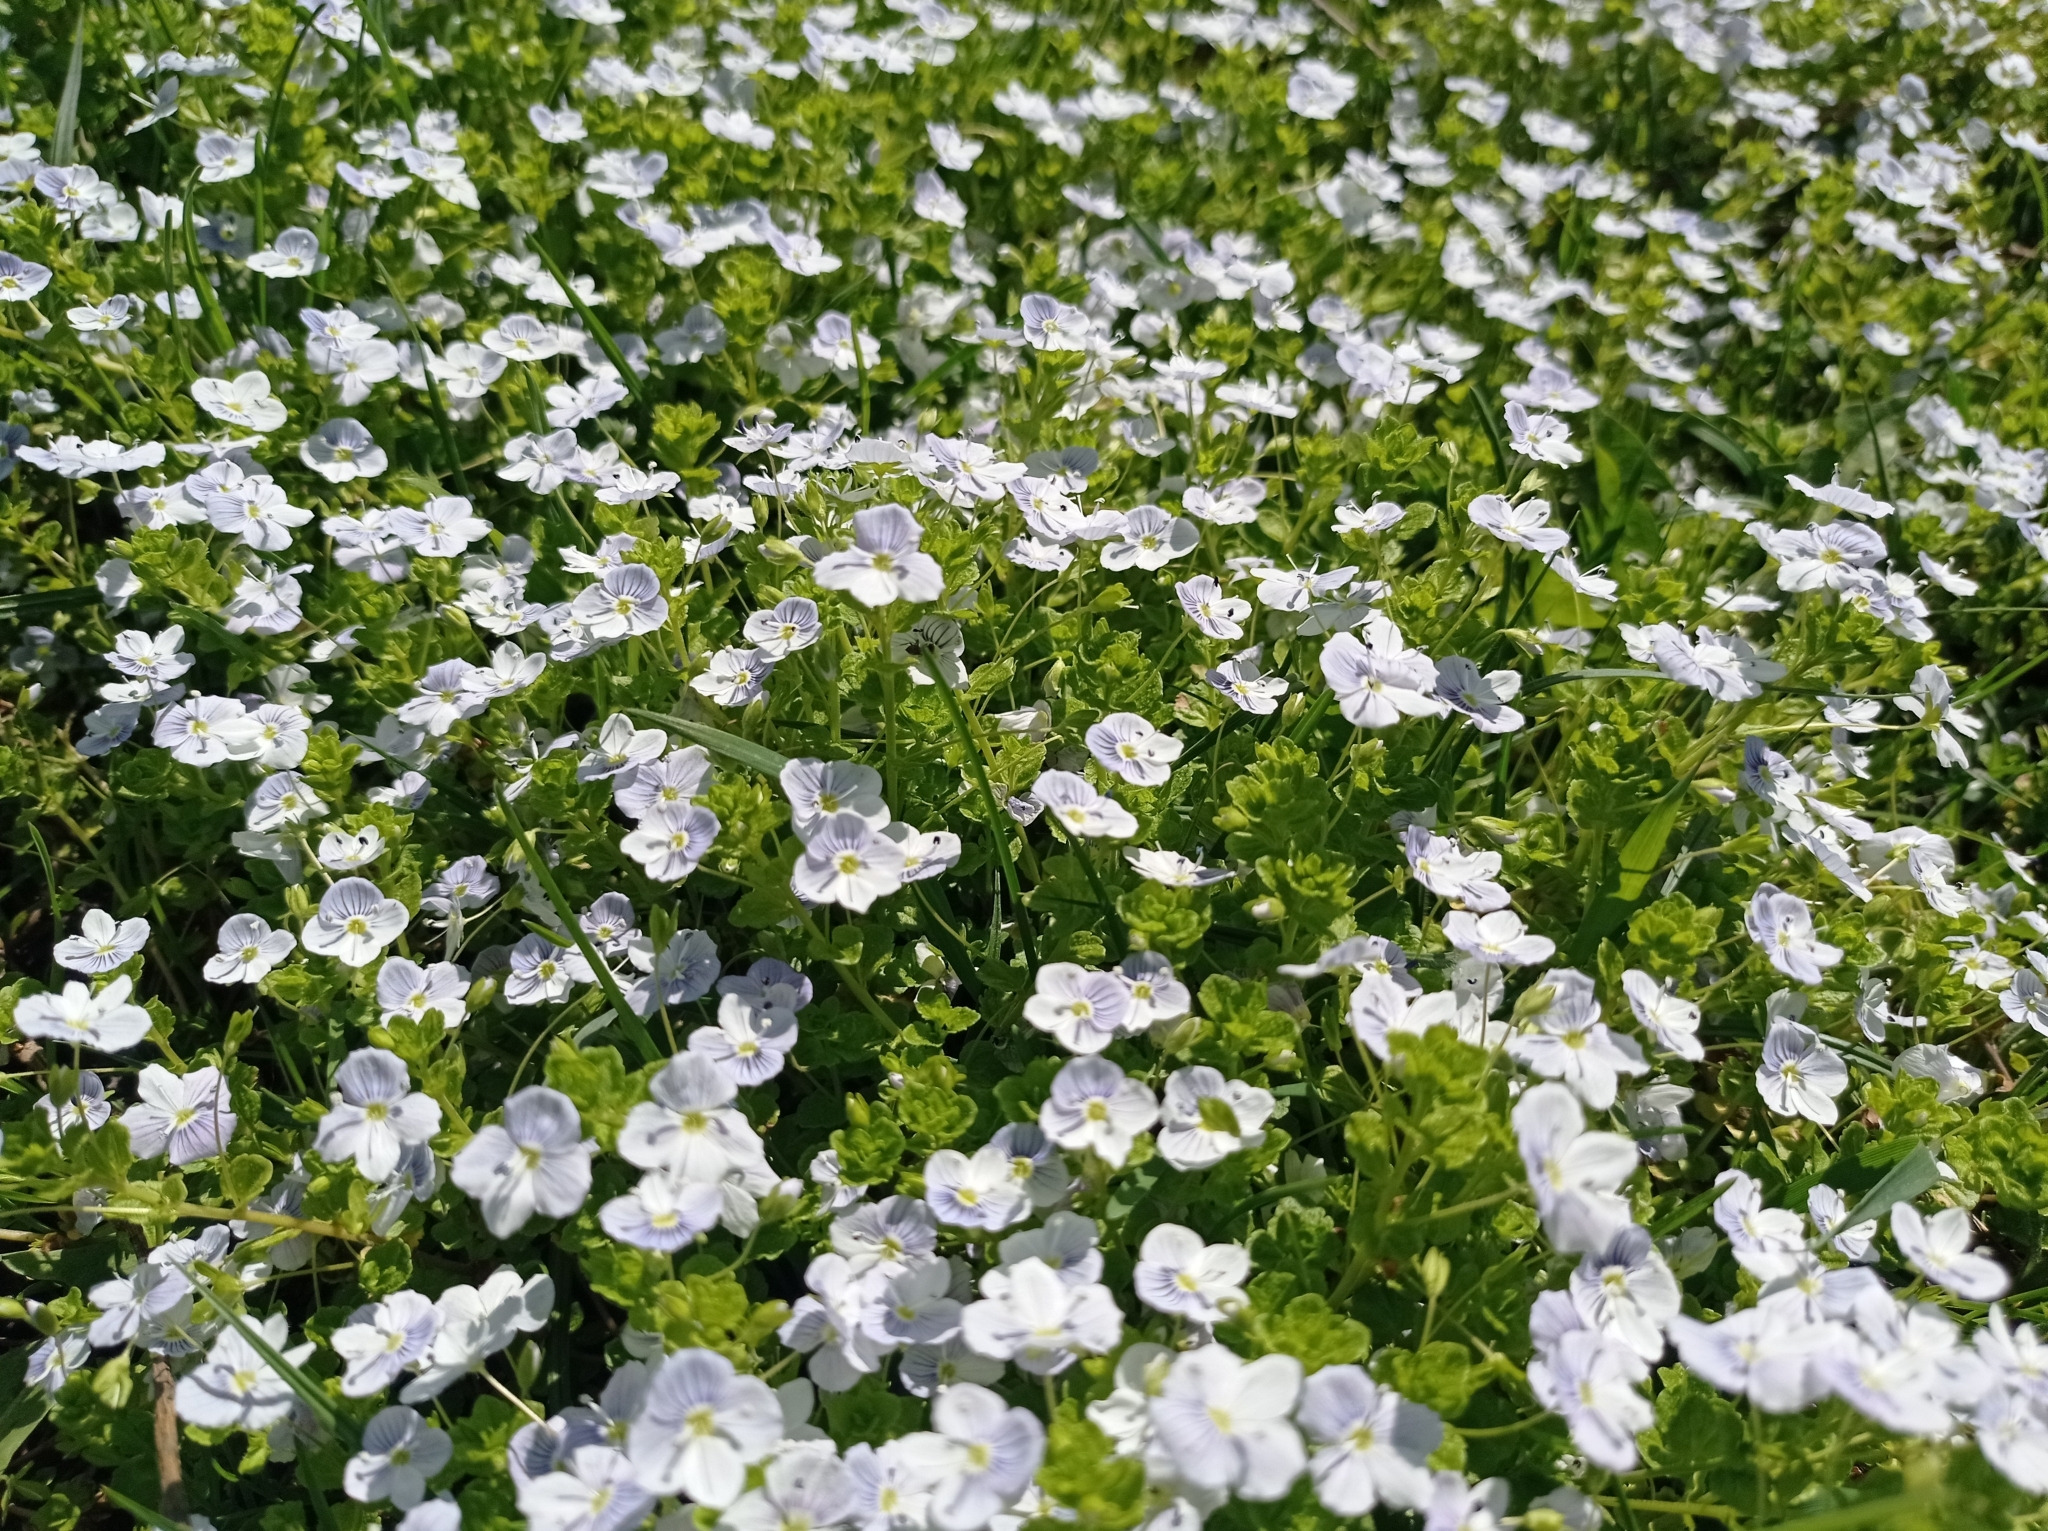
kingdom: Plantae
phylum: Tracheophyta
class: Magnoliopsida
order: Lamiales
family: Plantaginaceae
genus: Veronica
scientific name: Veronica filiformis
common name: Slender speedwell
